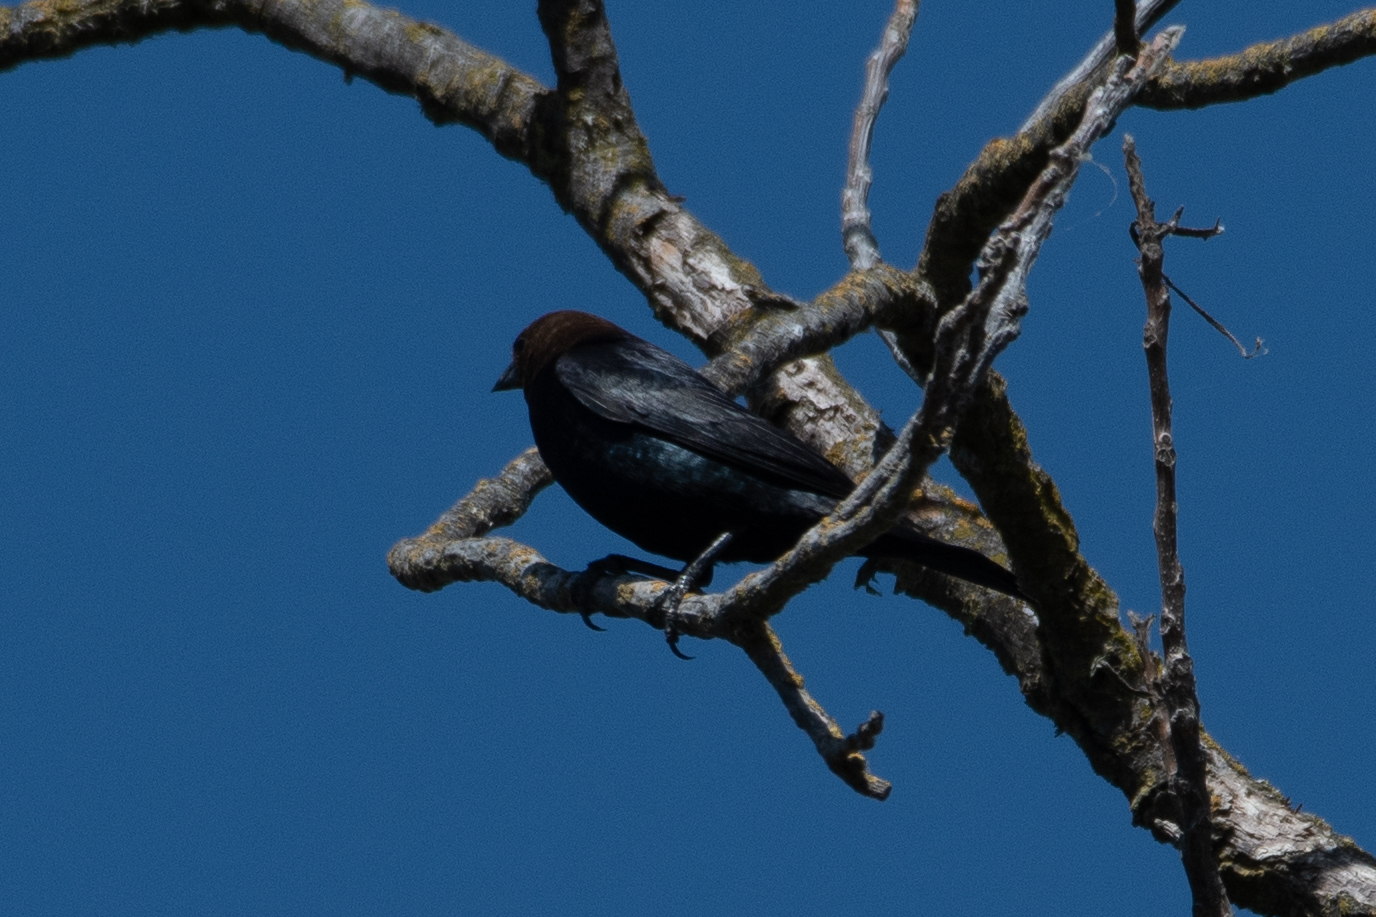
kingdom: Animalia
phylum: Chordata
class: Aves
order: Passeriformes
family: Icteridae
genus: Molothrus
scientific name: Molothrus ater
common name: Brown-headed cowbird
